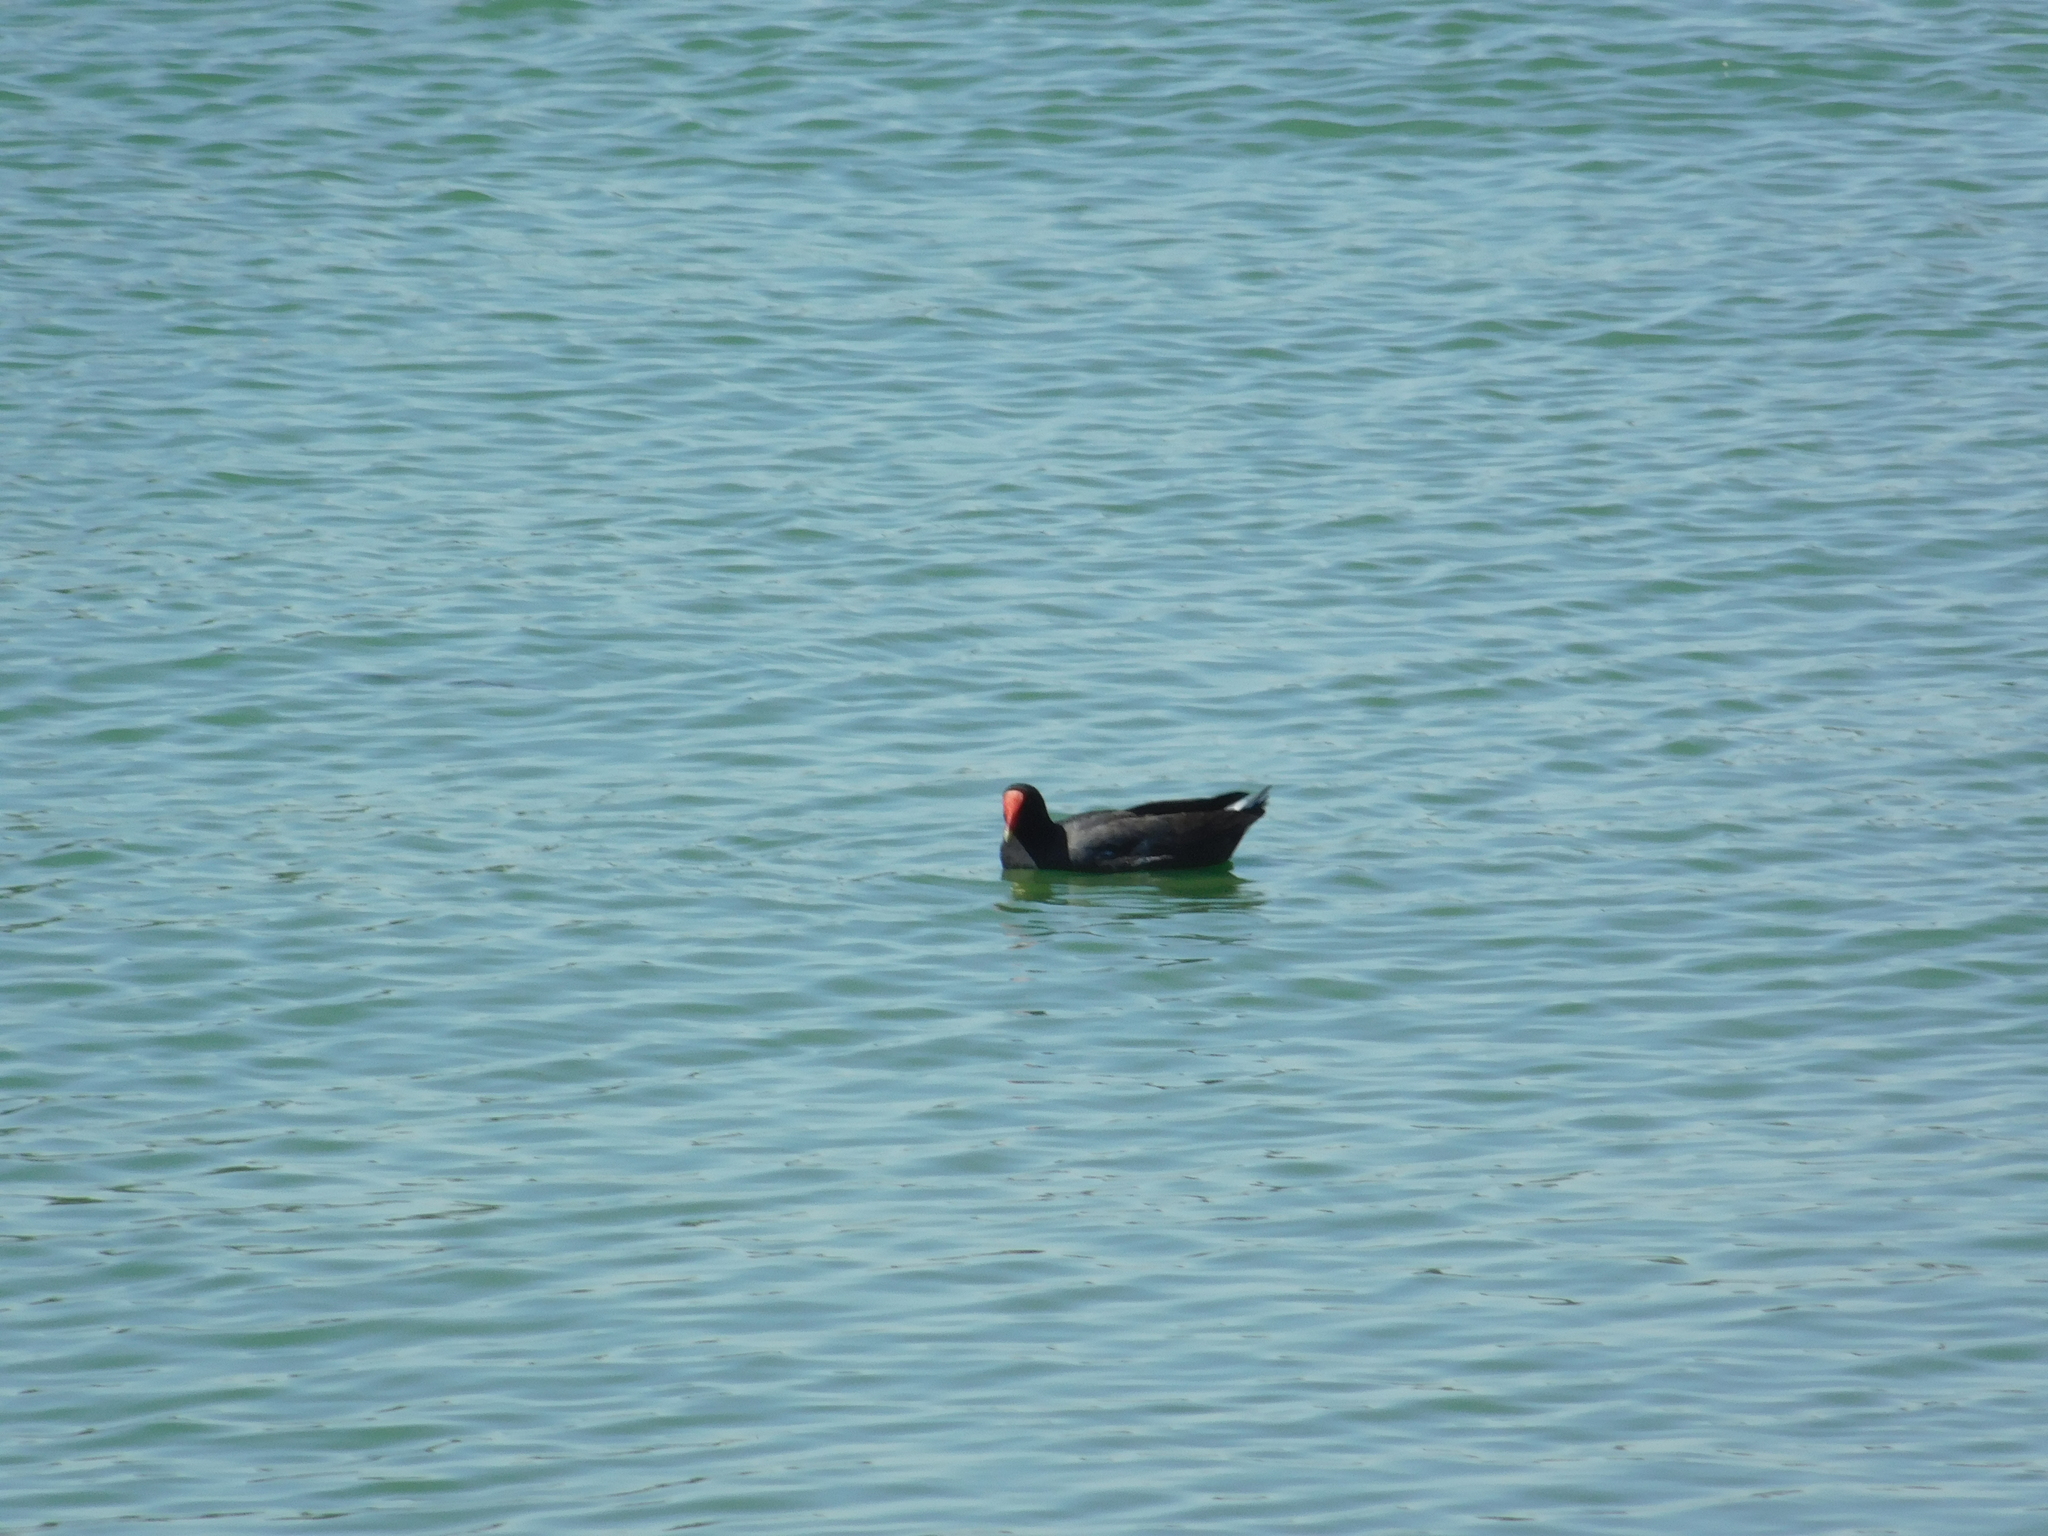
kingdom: Animalia
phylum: Chordata
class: Aves
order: Gruiformes
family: Rallidae
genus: Gallinula
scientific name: Gallinula chloropus
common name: Common moorhen
